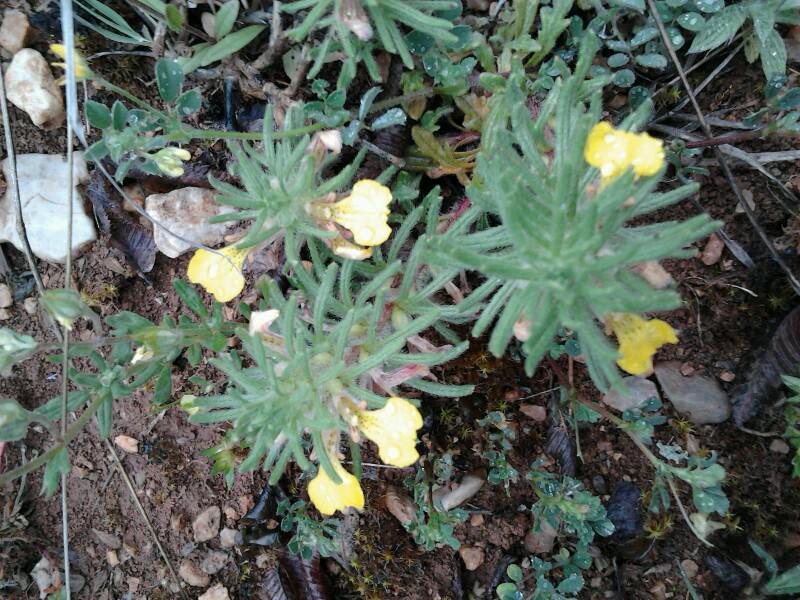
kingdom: Plantae
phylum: Tracheophyta
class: Magnoliopsida
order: Lamiales
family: Lamiaceae
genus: Ajuga
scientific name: Ajuga chamaepitys
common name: Ground-pine
